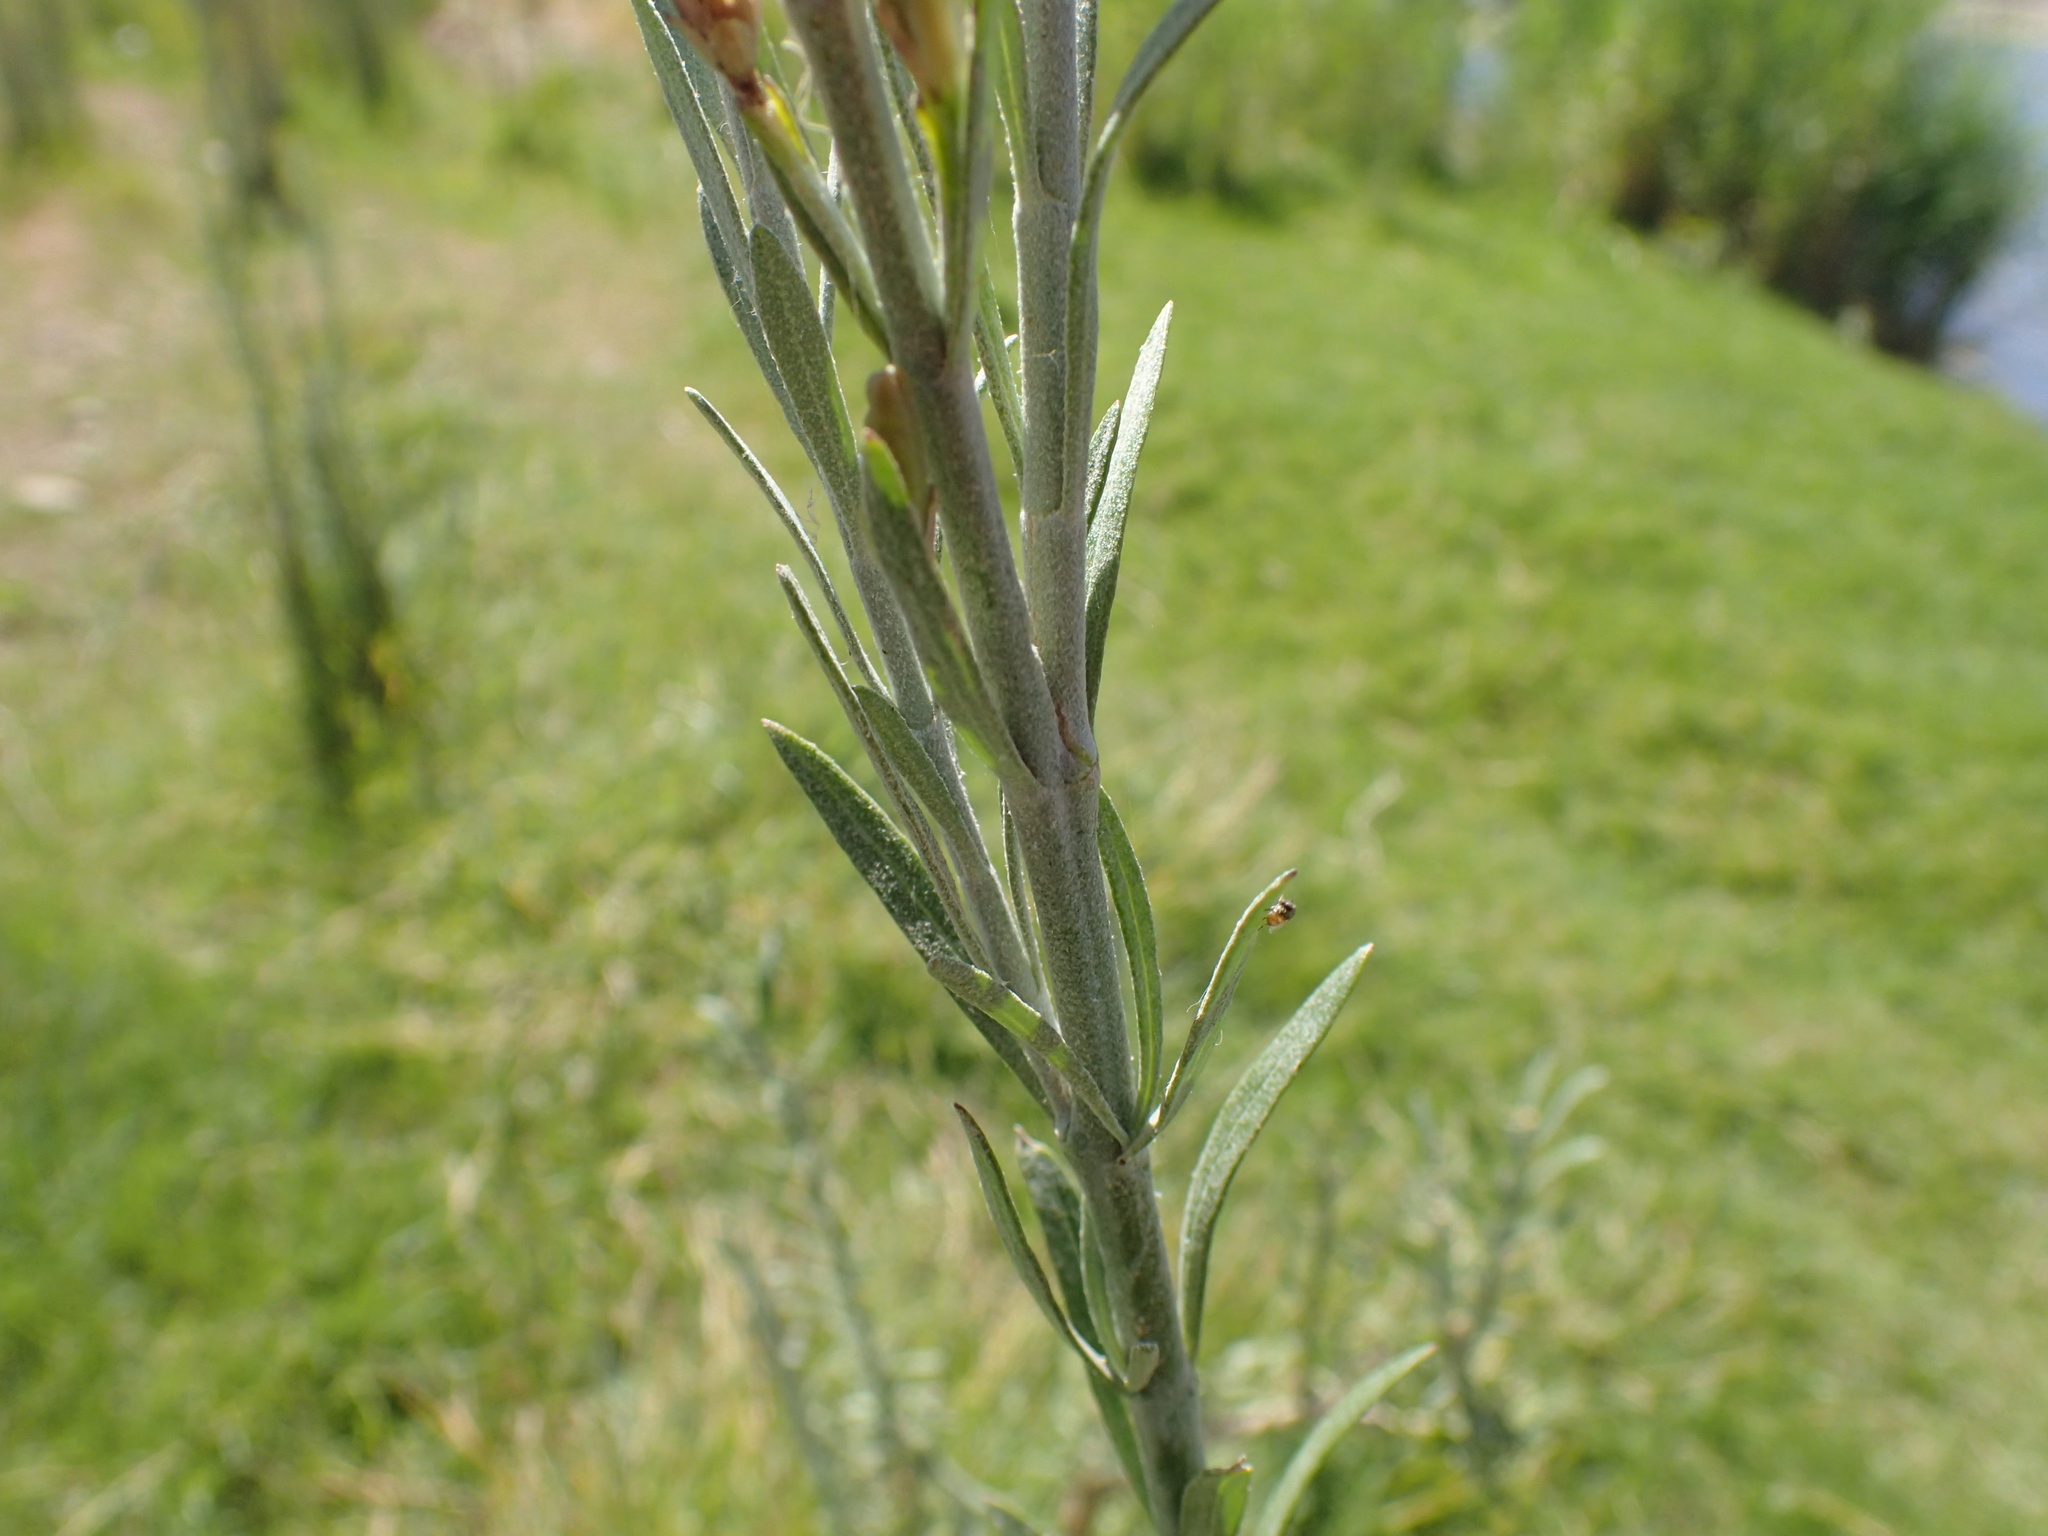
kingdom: Plantae
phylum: Tracheophyta
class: Magnoliopsida
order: Lamiales
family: Scrophulariaceae
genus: Buddleja
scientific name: Buddleja virgata
